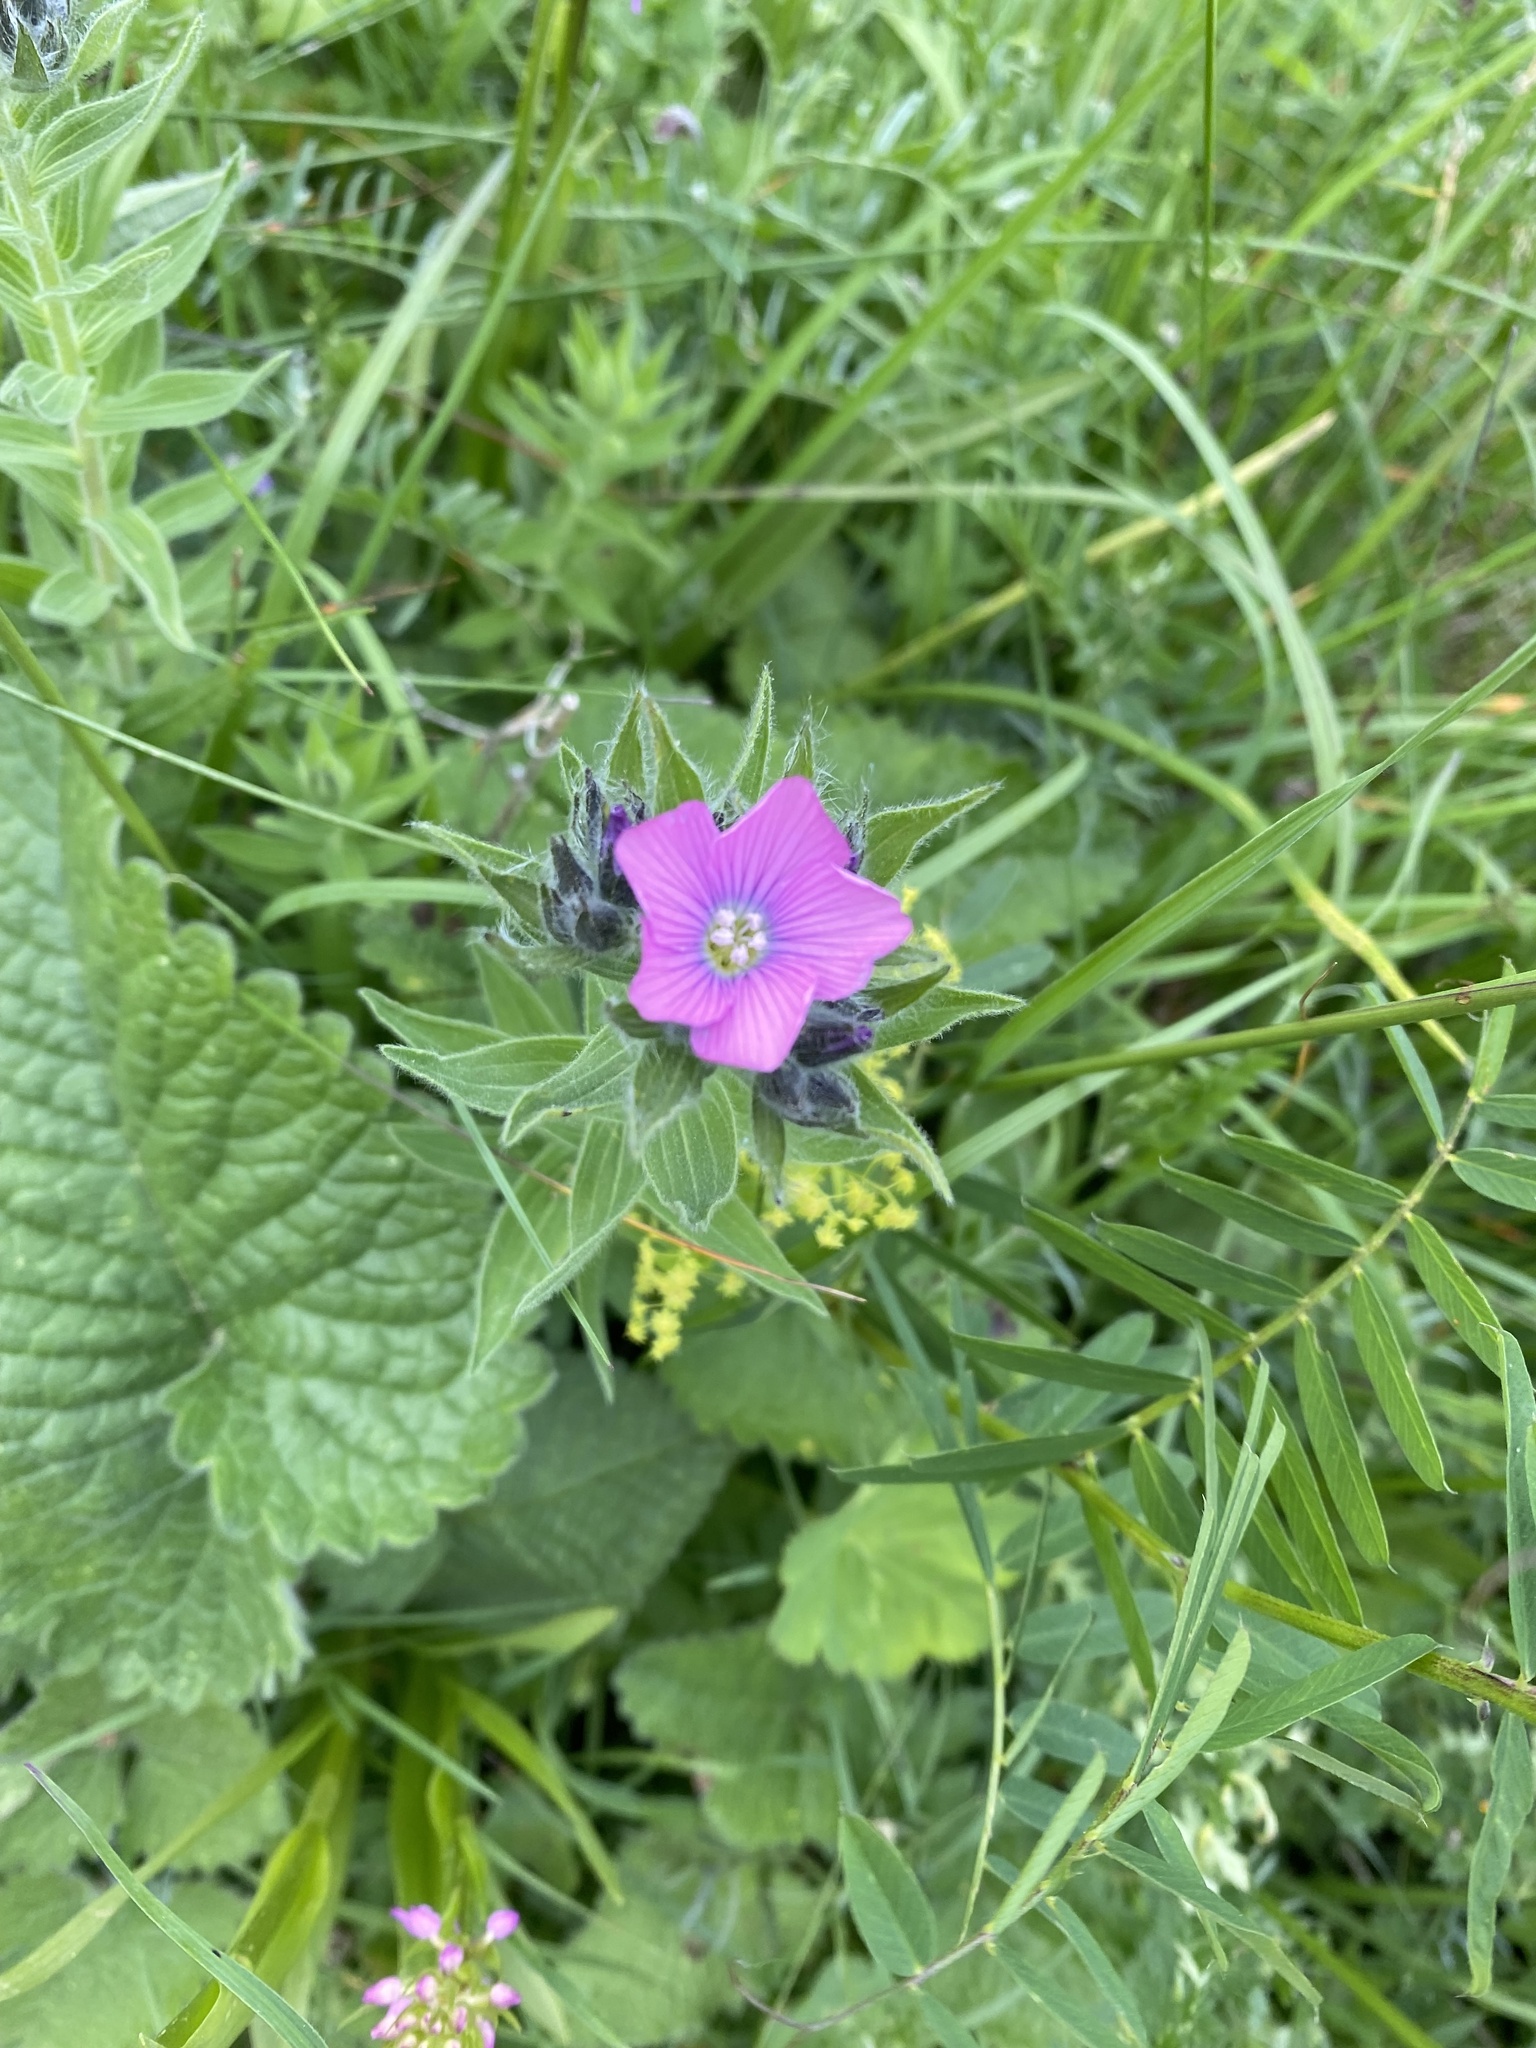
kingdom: Plantae
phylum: Tracheophyta
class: Magnoliopsida
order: Malpighiales
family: Linaceae
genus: Linum
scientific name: Linum hypericifolium
